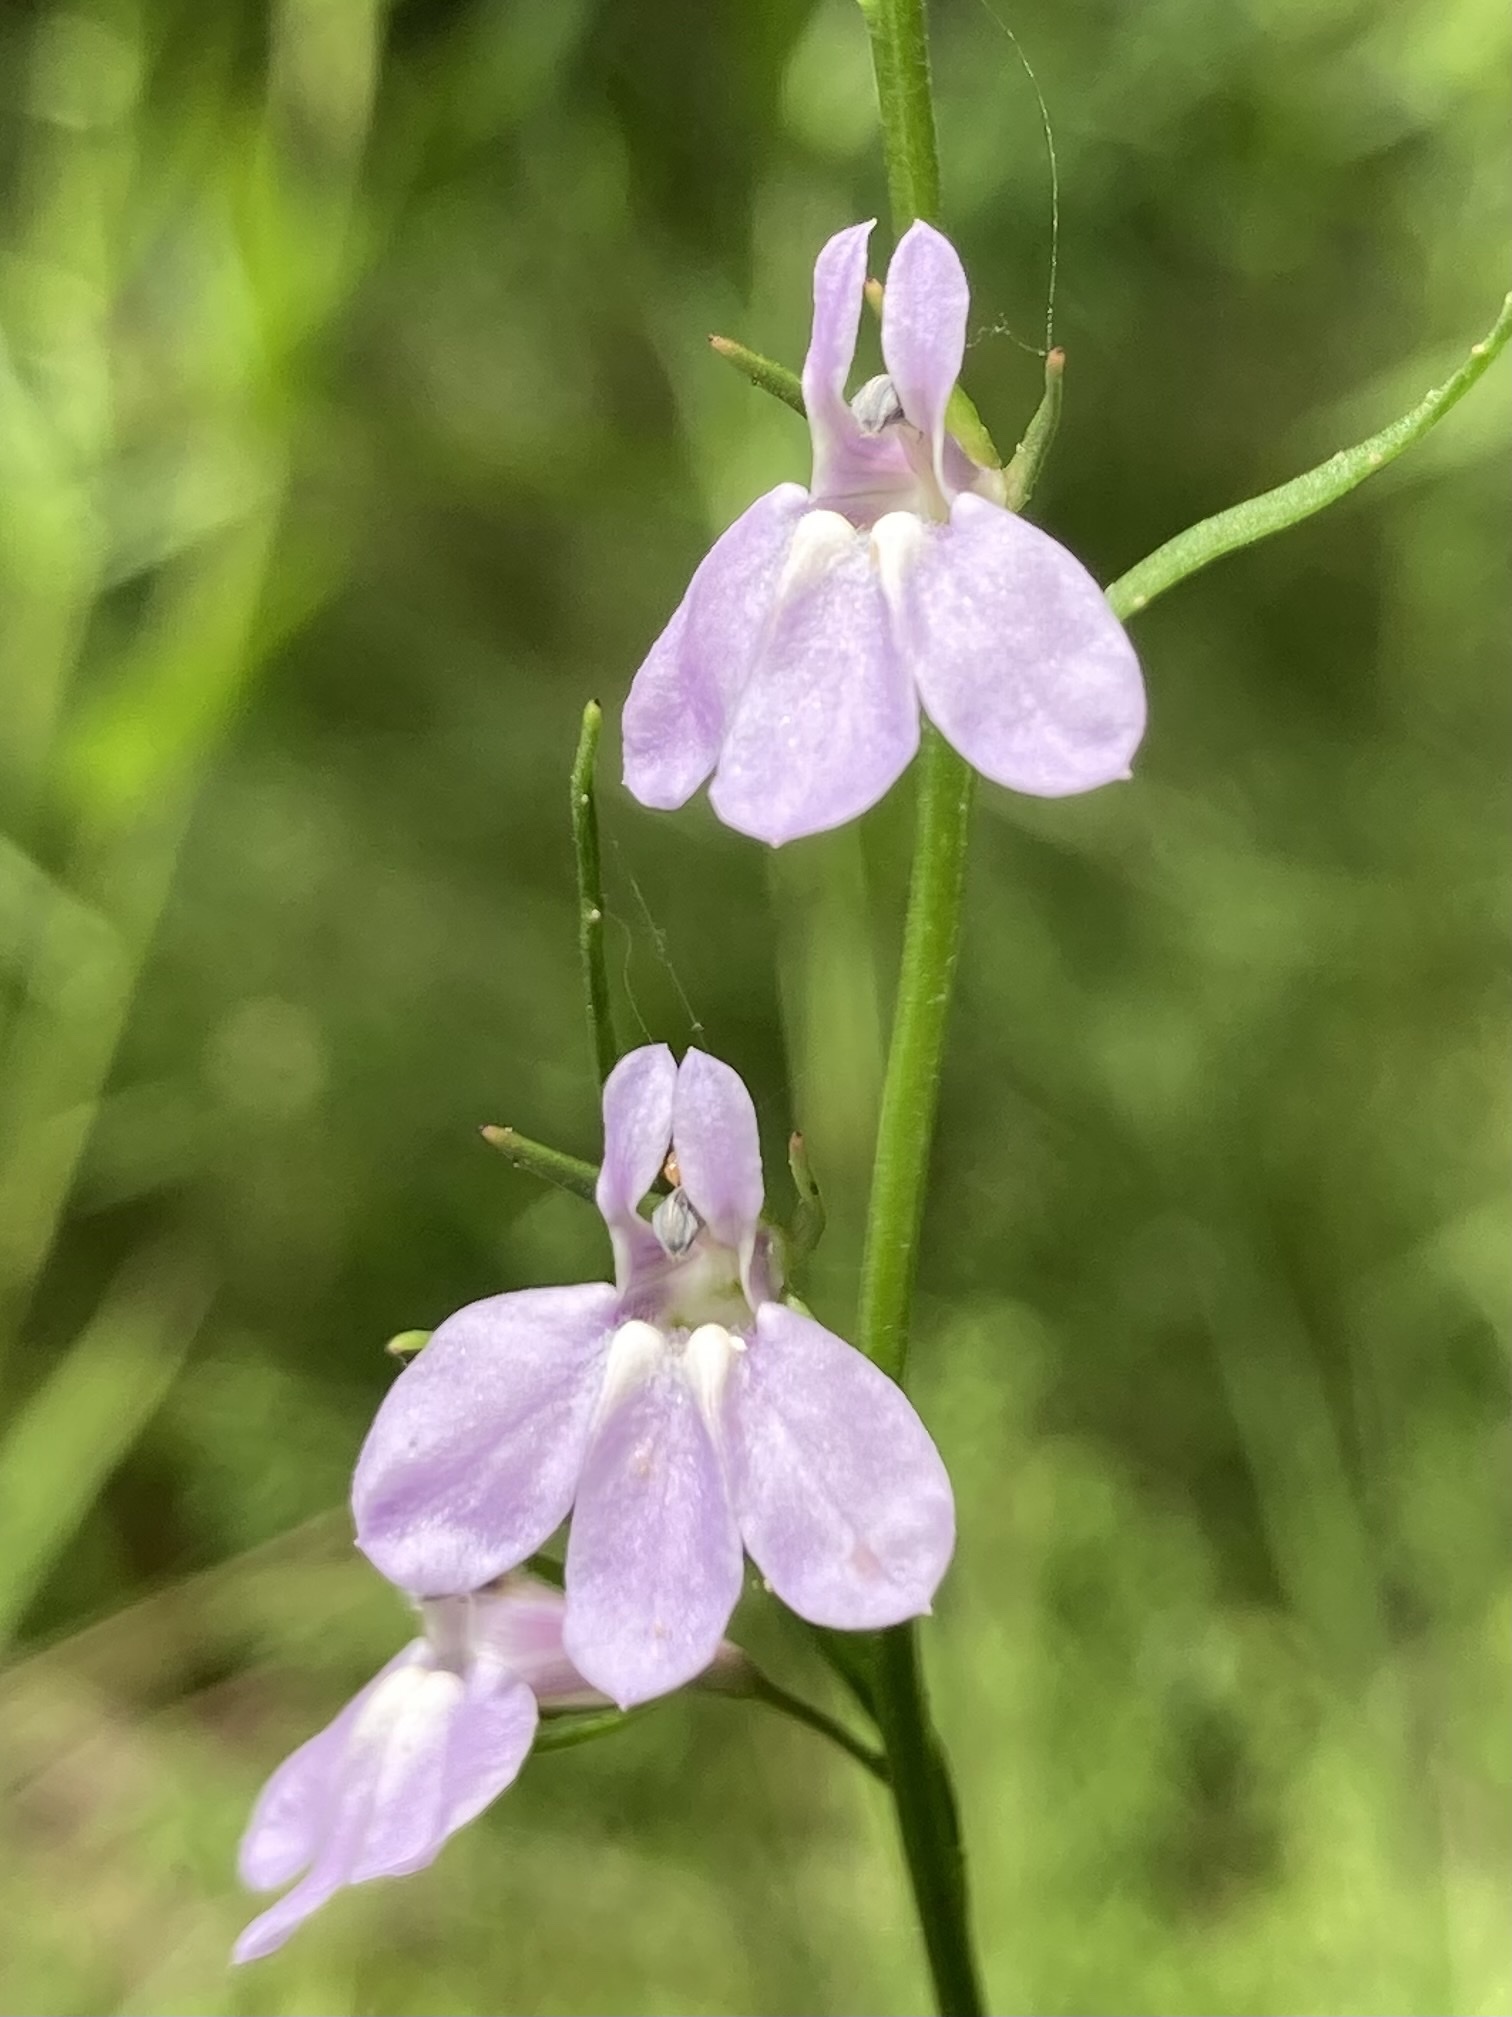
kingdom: Plantae
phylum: Tracheophyta
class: Magnoliopsida
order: Asterales
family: Campanulaceae
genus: Lobelia
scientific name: Lobelia canbyi
